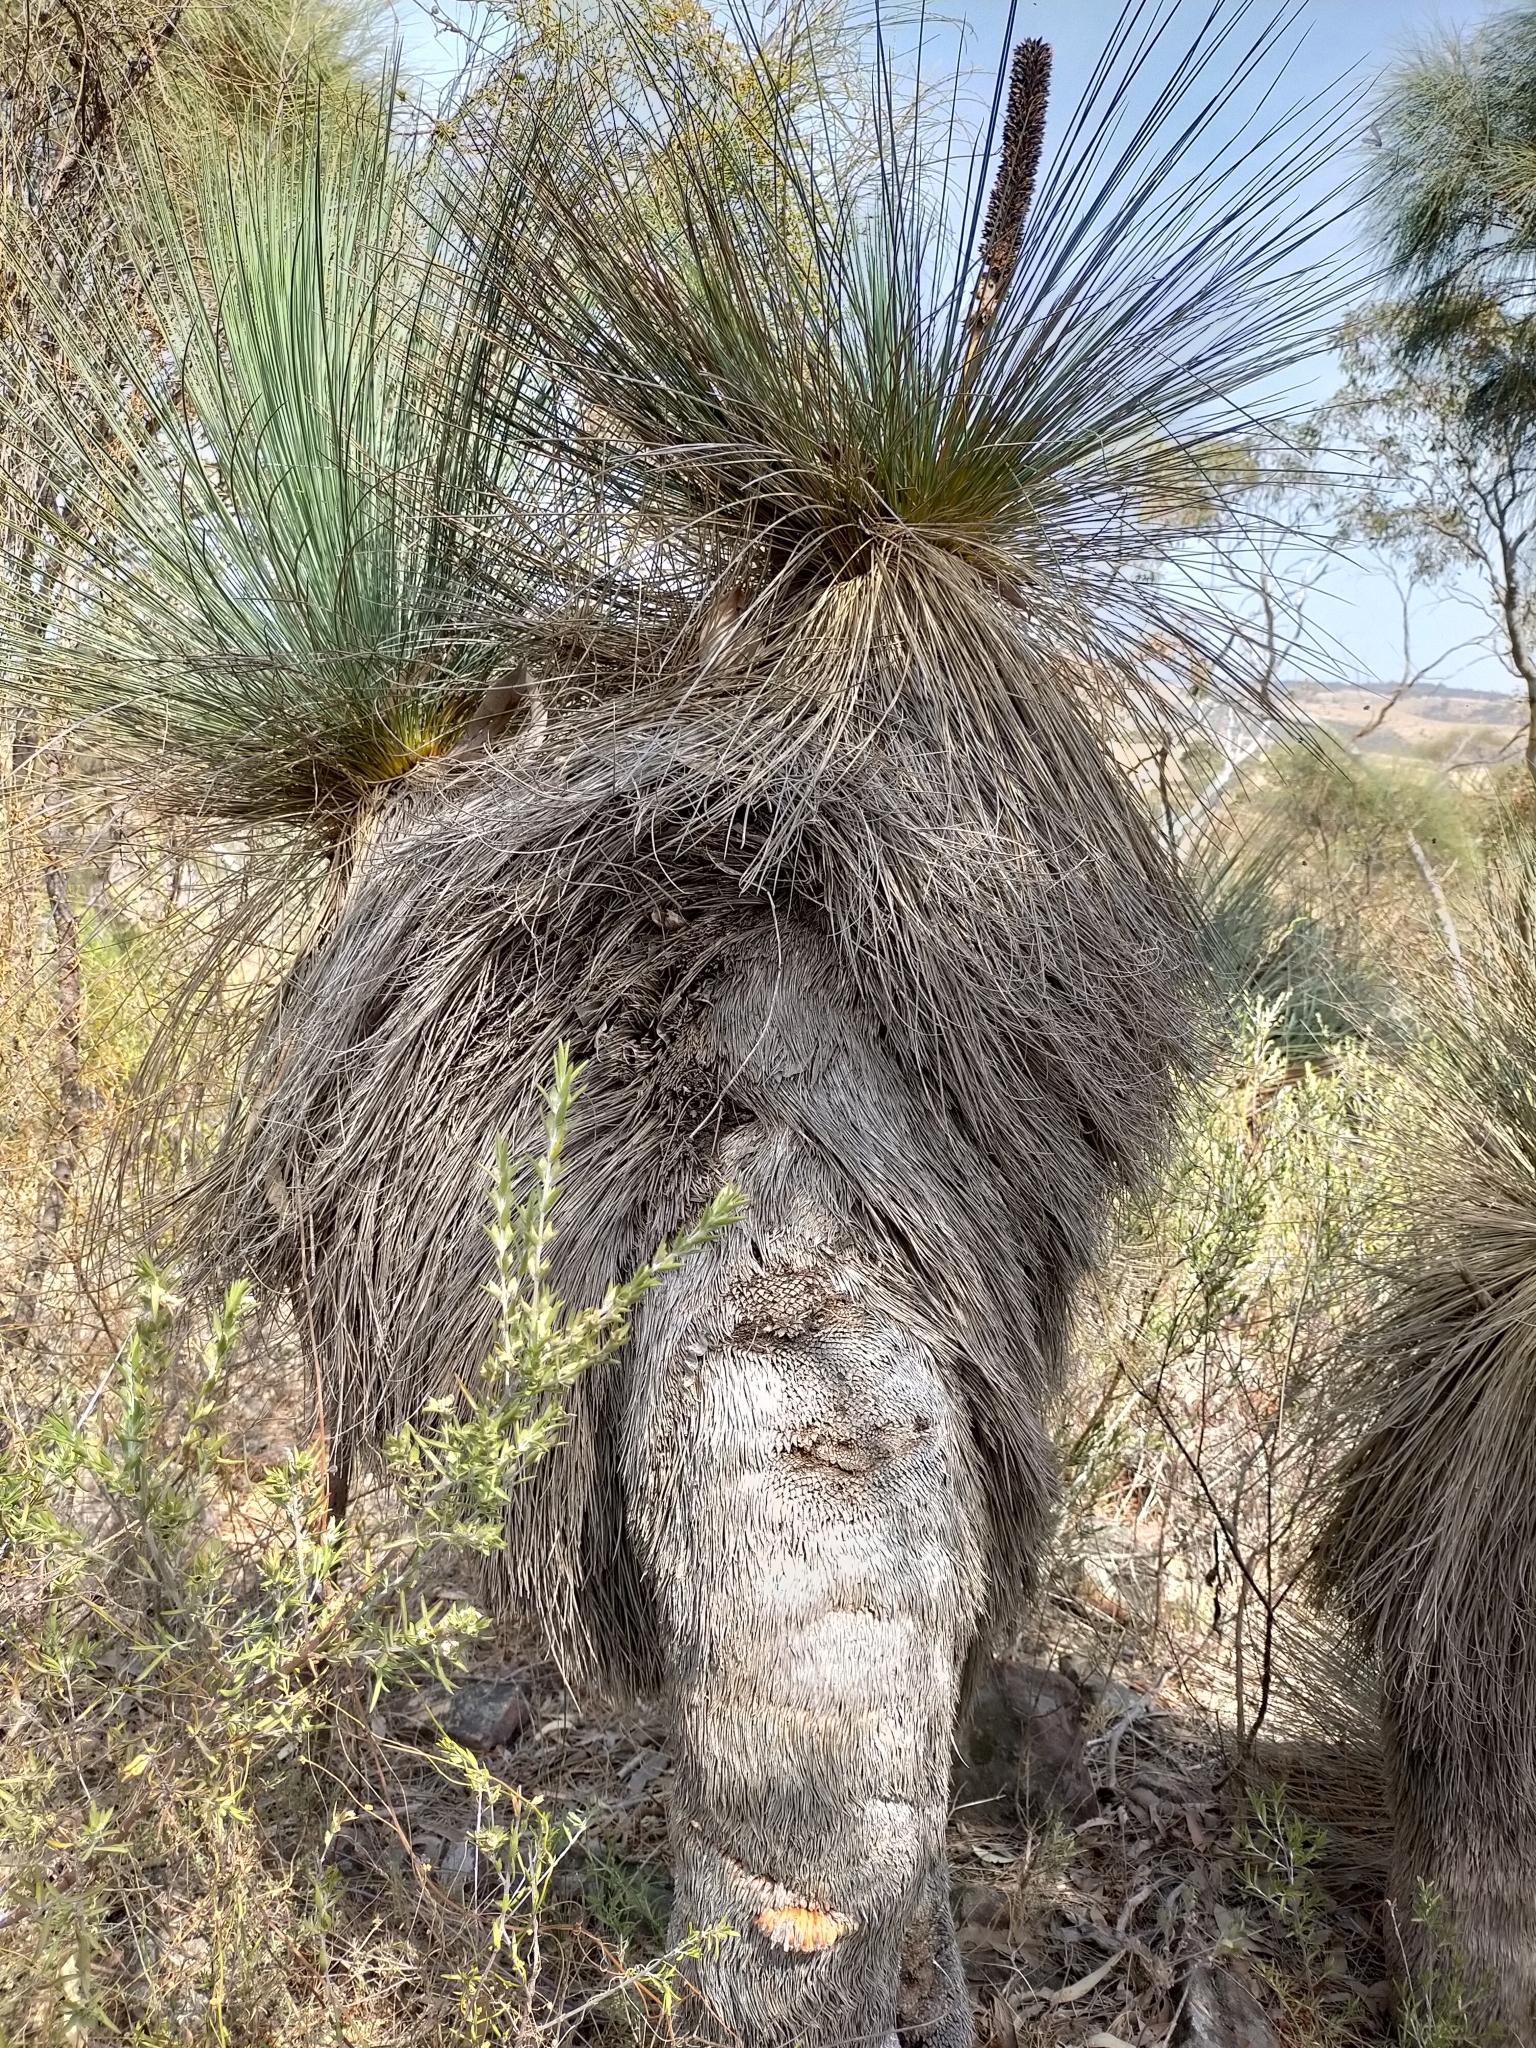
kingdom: Plantae
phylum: Tracheophyta
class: Liliopsida
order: Asparagales
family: Asphodelaceae
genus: Xanthorrhoea
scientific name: Xanthorrhoea quadrangulata
